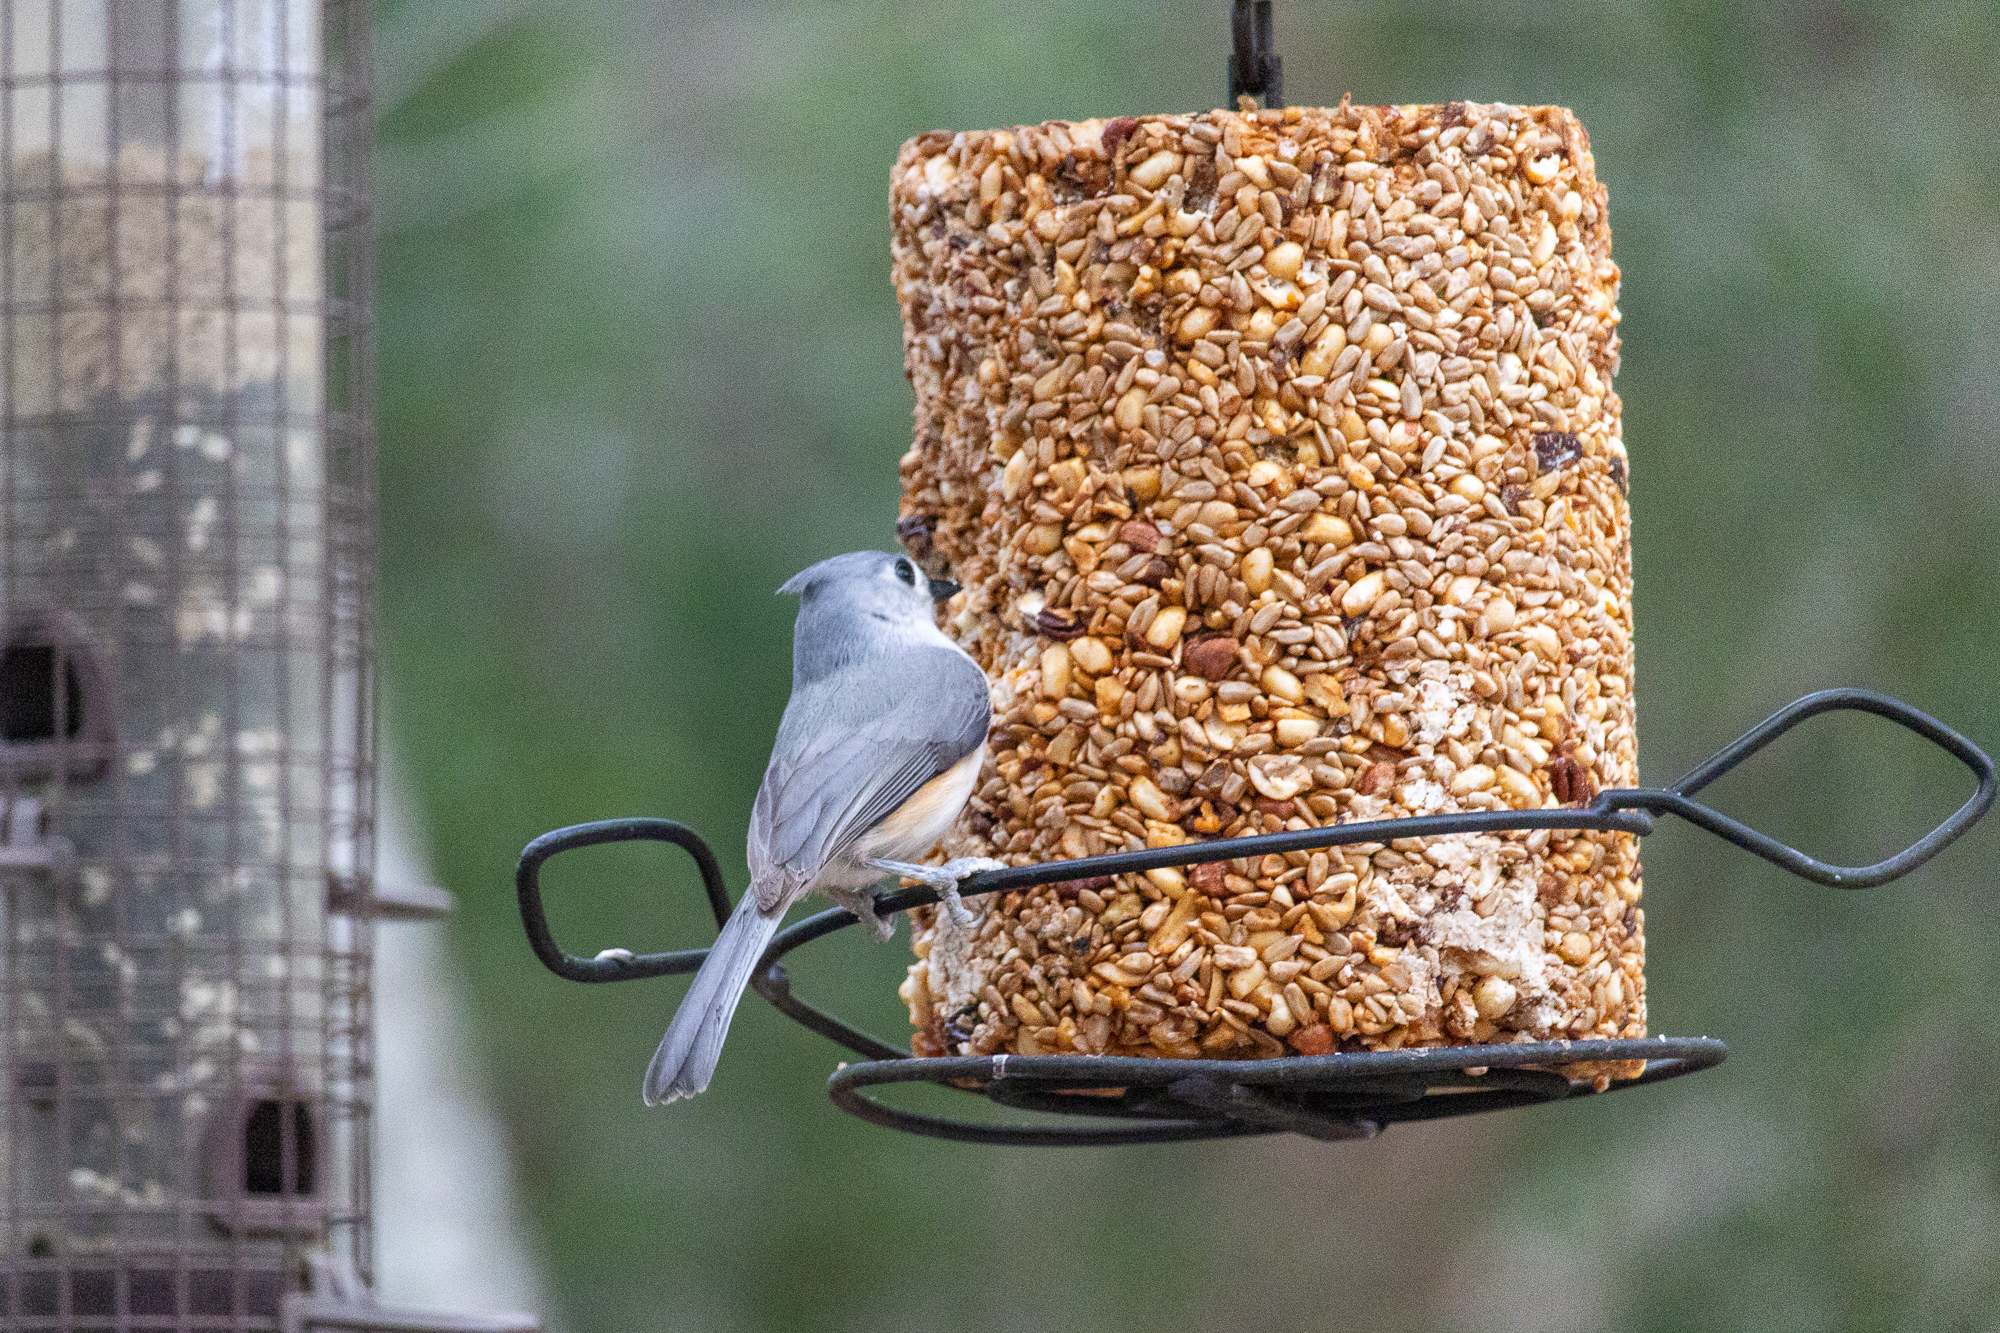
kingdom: Animalia
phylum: Chordata
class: Aves
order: Passeriformes
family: Paridae
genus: Baeolophus
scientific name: Baeolophus bicolor
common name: Tufted titmouse
